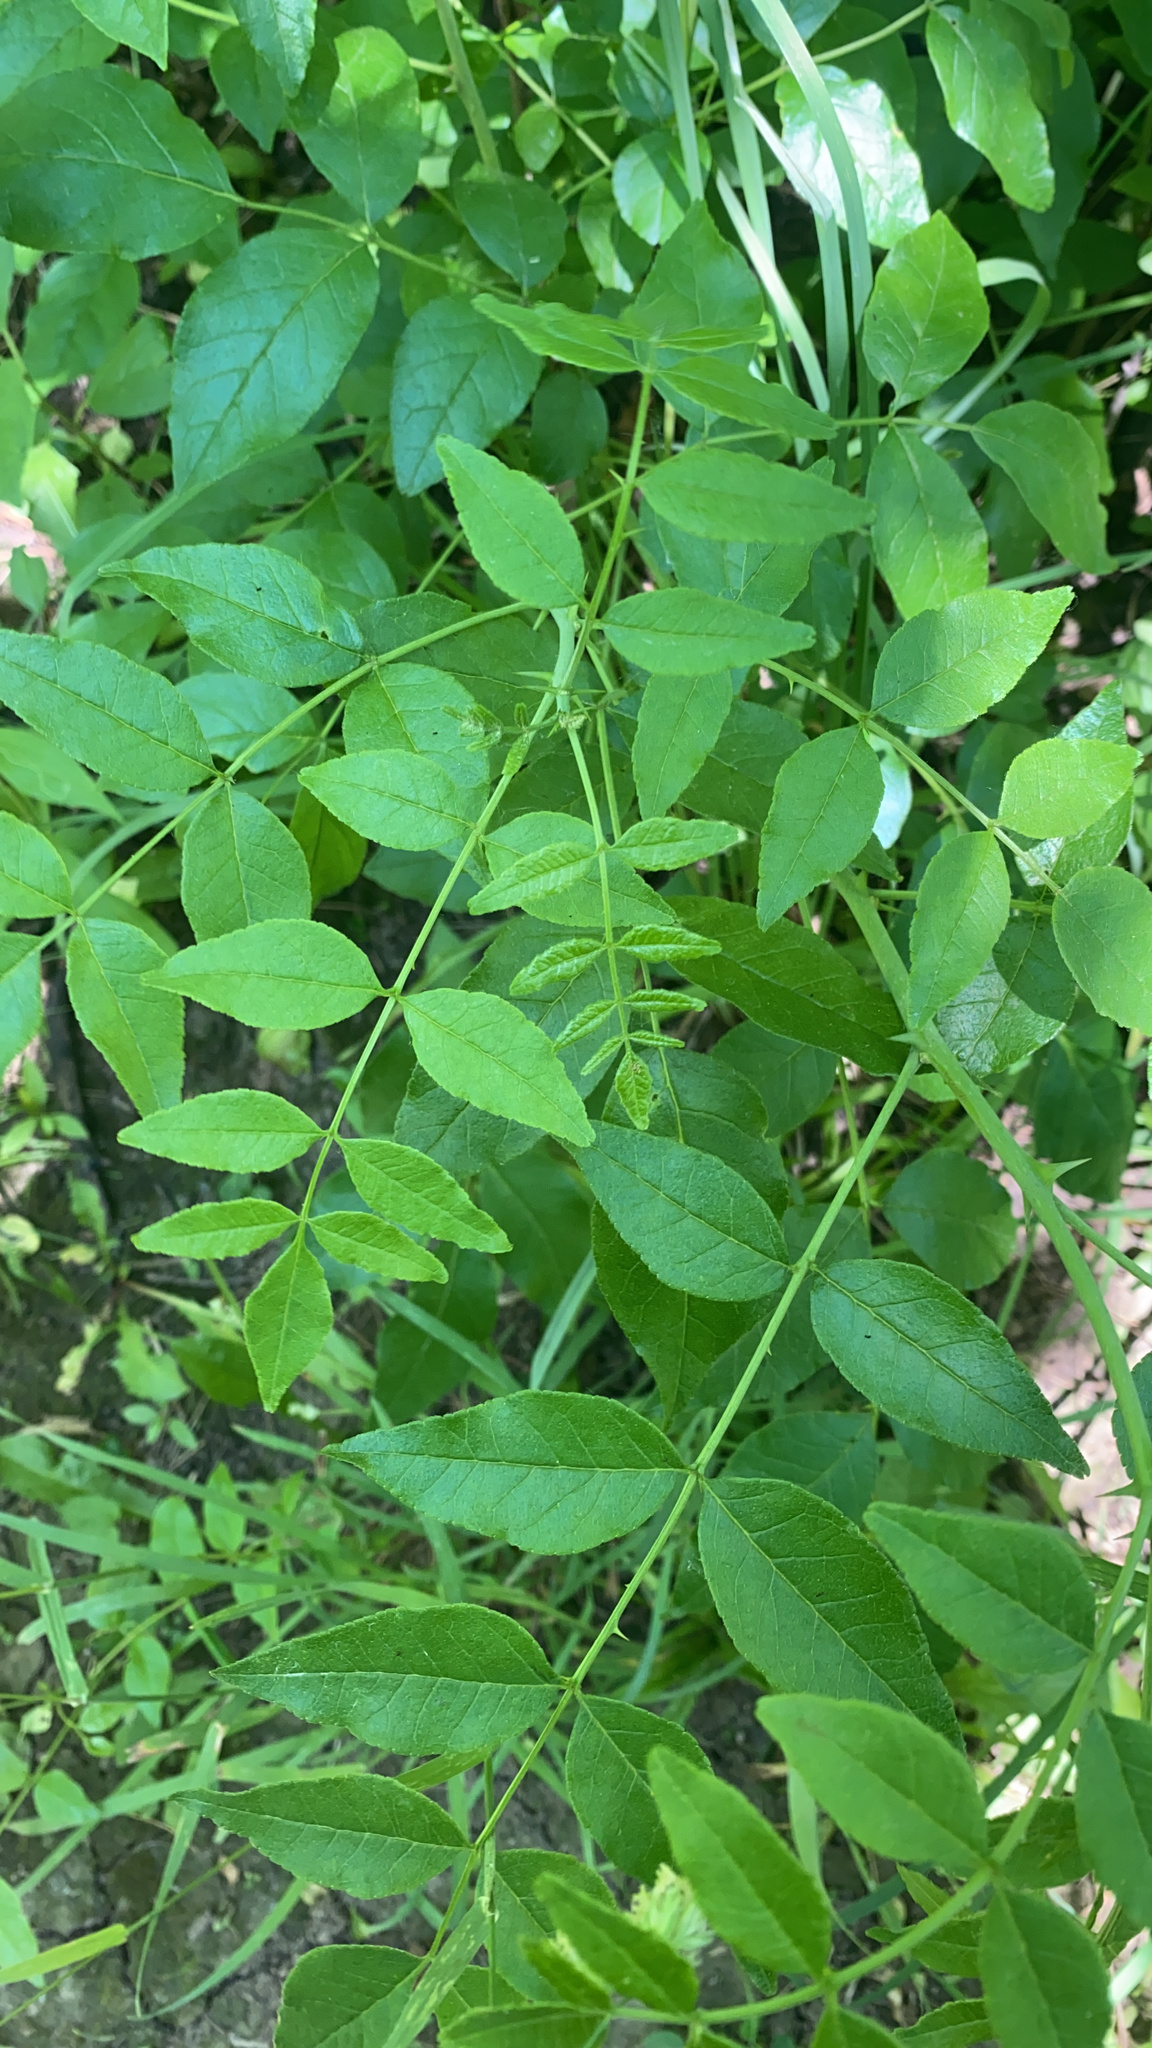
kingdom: Plantae
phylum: Tracheophyta
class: Magnoliopsida
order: Sapindales
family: Rutaceae
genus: Zanthoxylum
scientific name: Zanthoxylum americanum
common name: Northern prickly-ash
